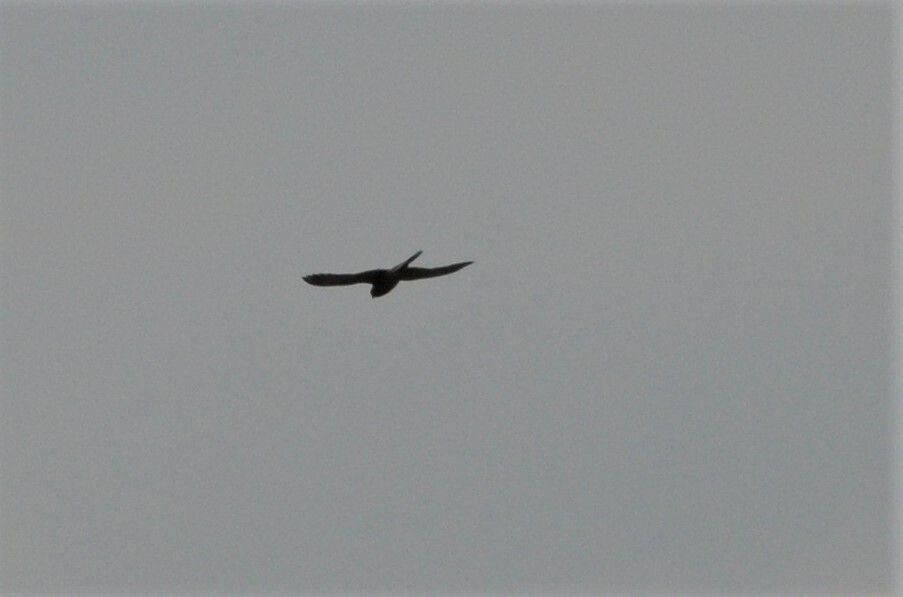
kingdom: Animalia
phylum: Chordata
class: Aves
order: Falconiformes
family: Falconidae
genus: Falco
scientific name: Falco tinnunculus
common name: Common kestrel
